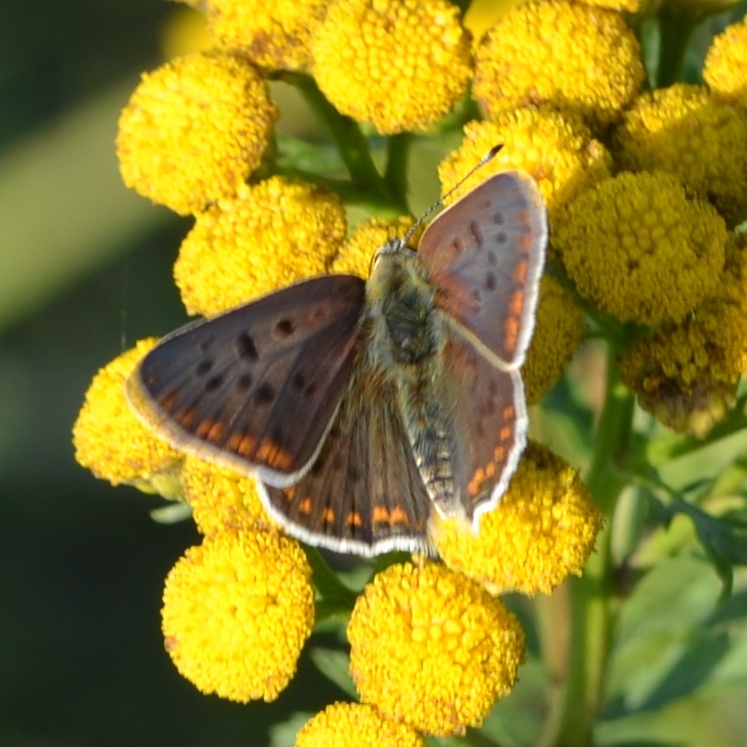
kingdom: Animalia
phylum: Arthropoda
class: Insecta
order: Lepidoptera
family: Lycaenidae
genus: Loweia
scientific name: Loweia tityrus
